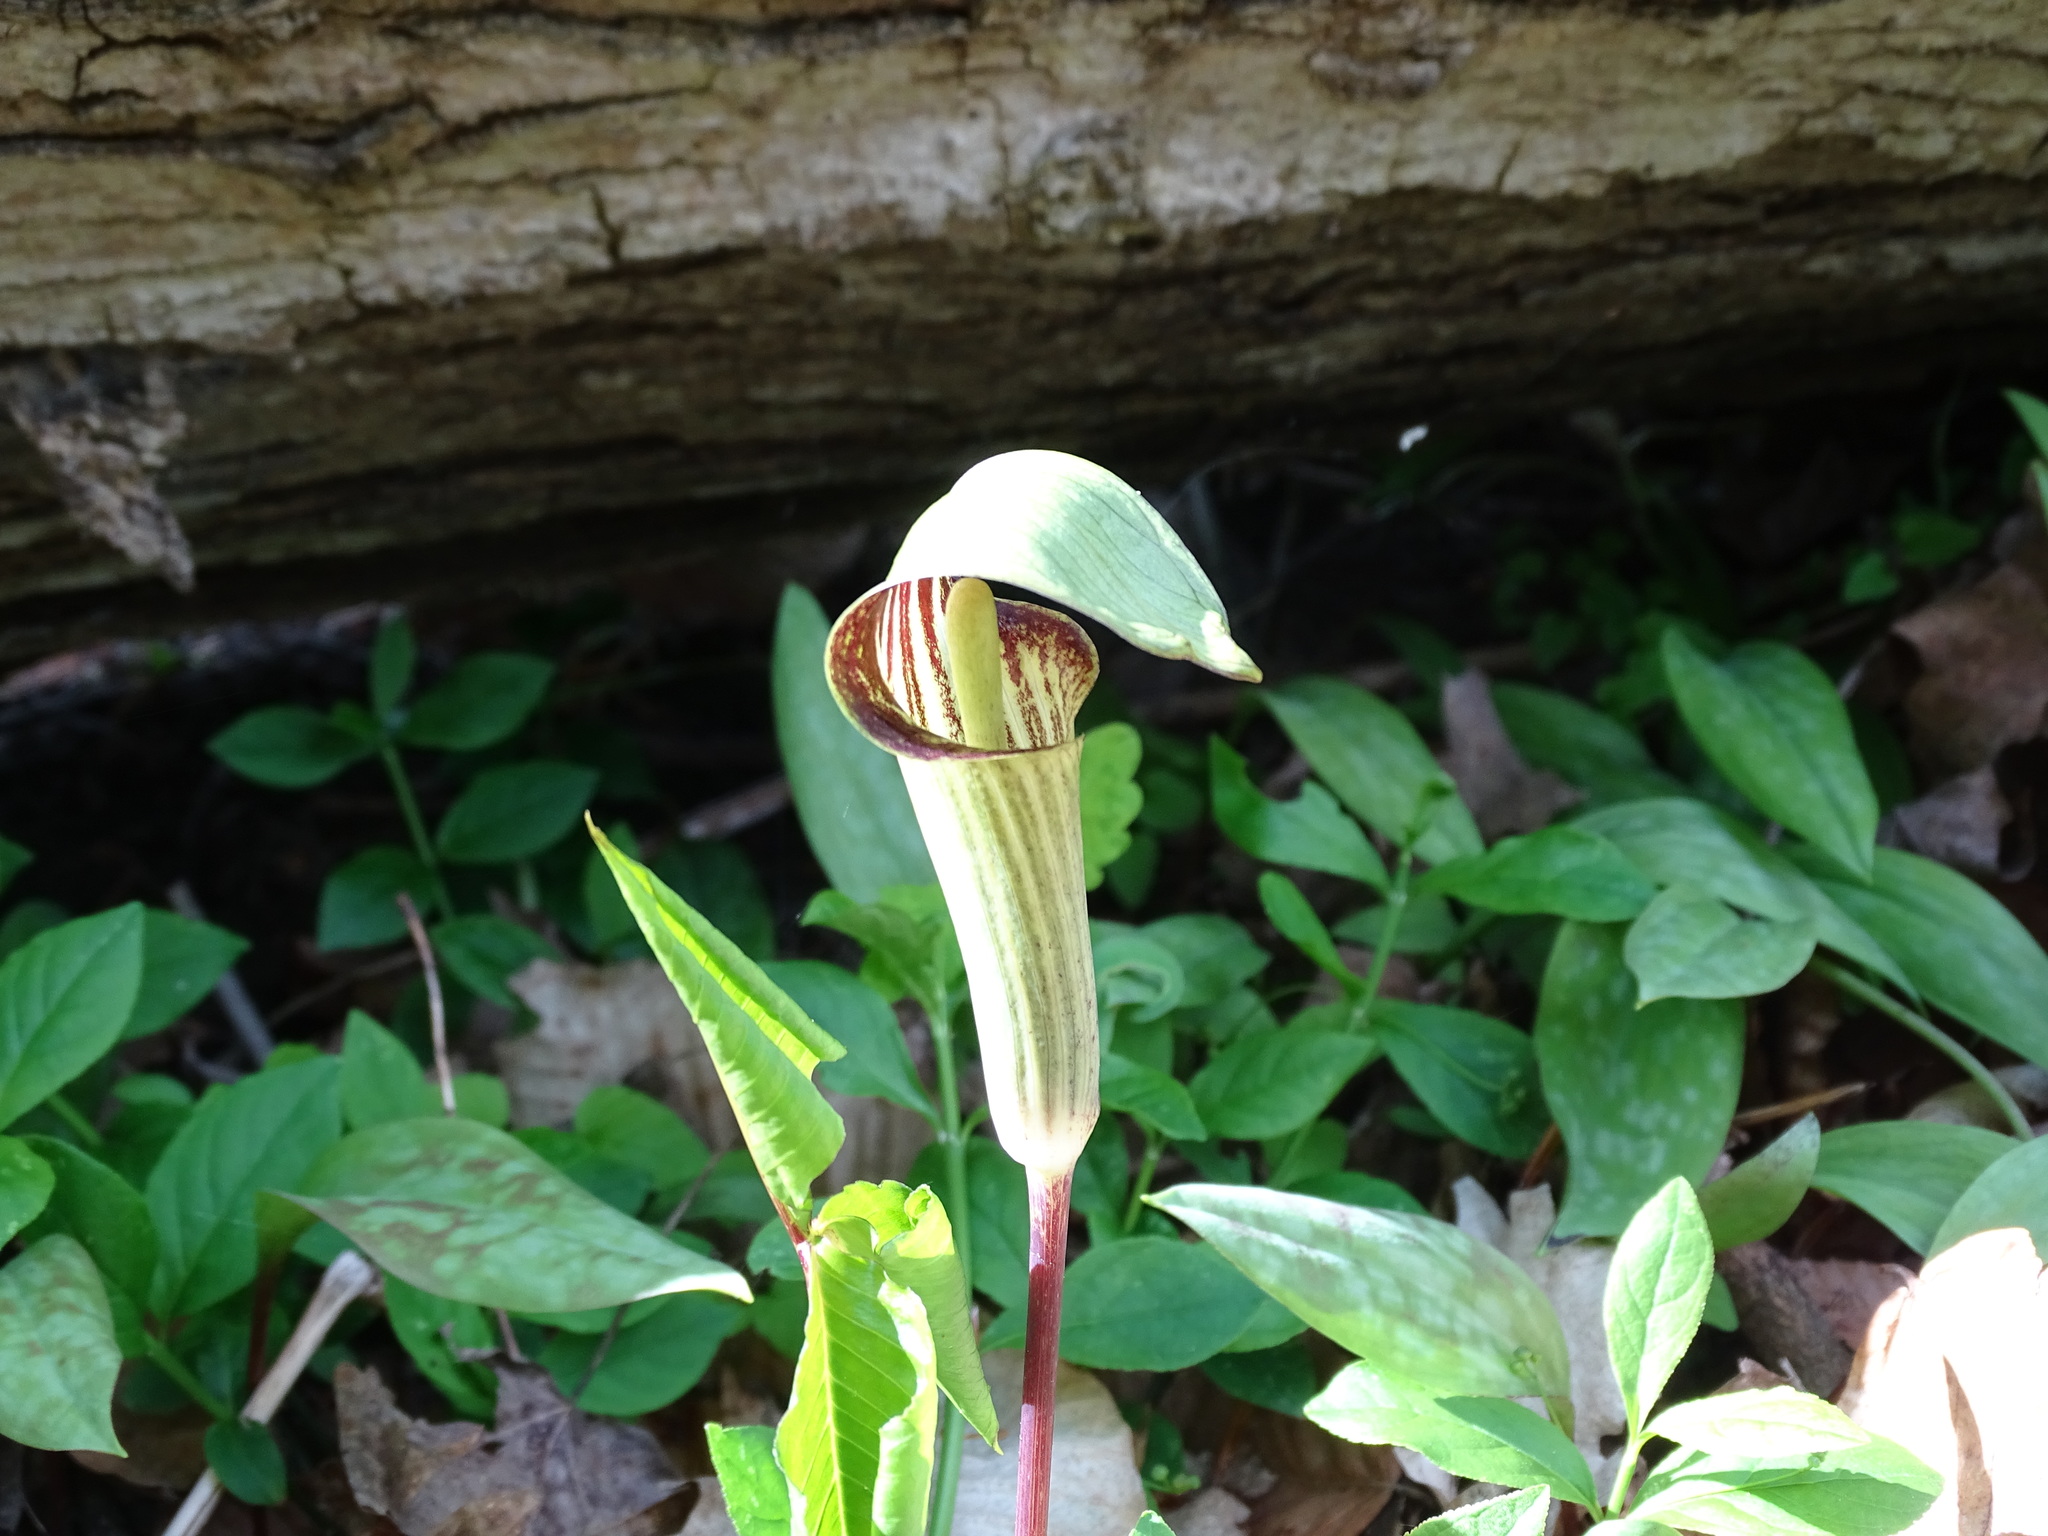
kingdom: Plantae
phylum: Tracheophyta
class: Liliopsida
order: Alismatales
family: Araceae
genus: Arisaema
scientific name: Arisaema triphyllum
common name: Jack-in-the-pulpit
